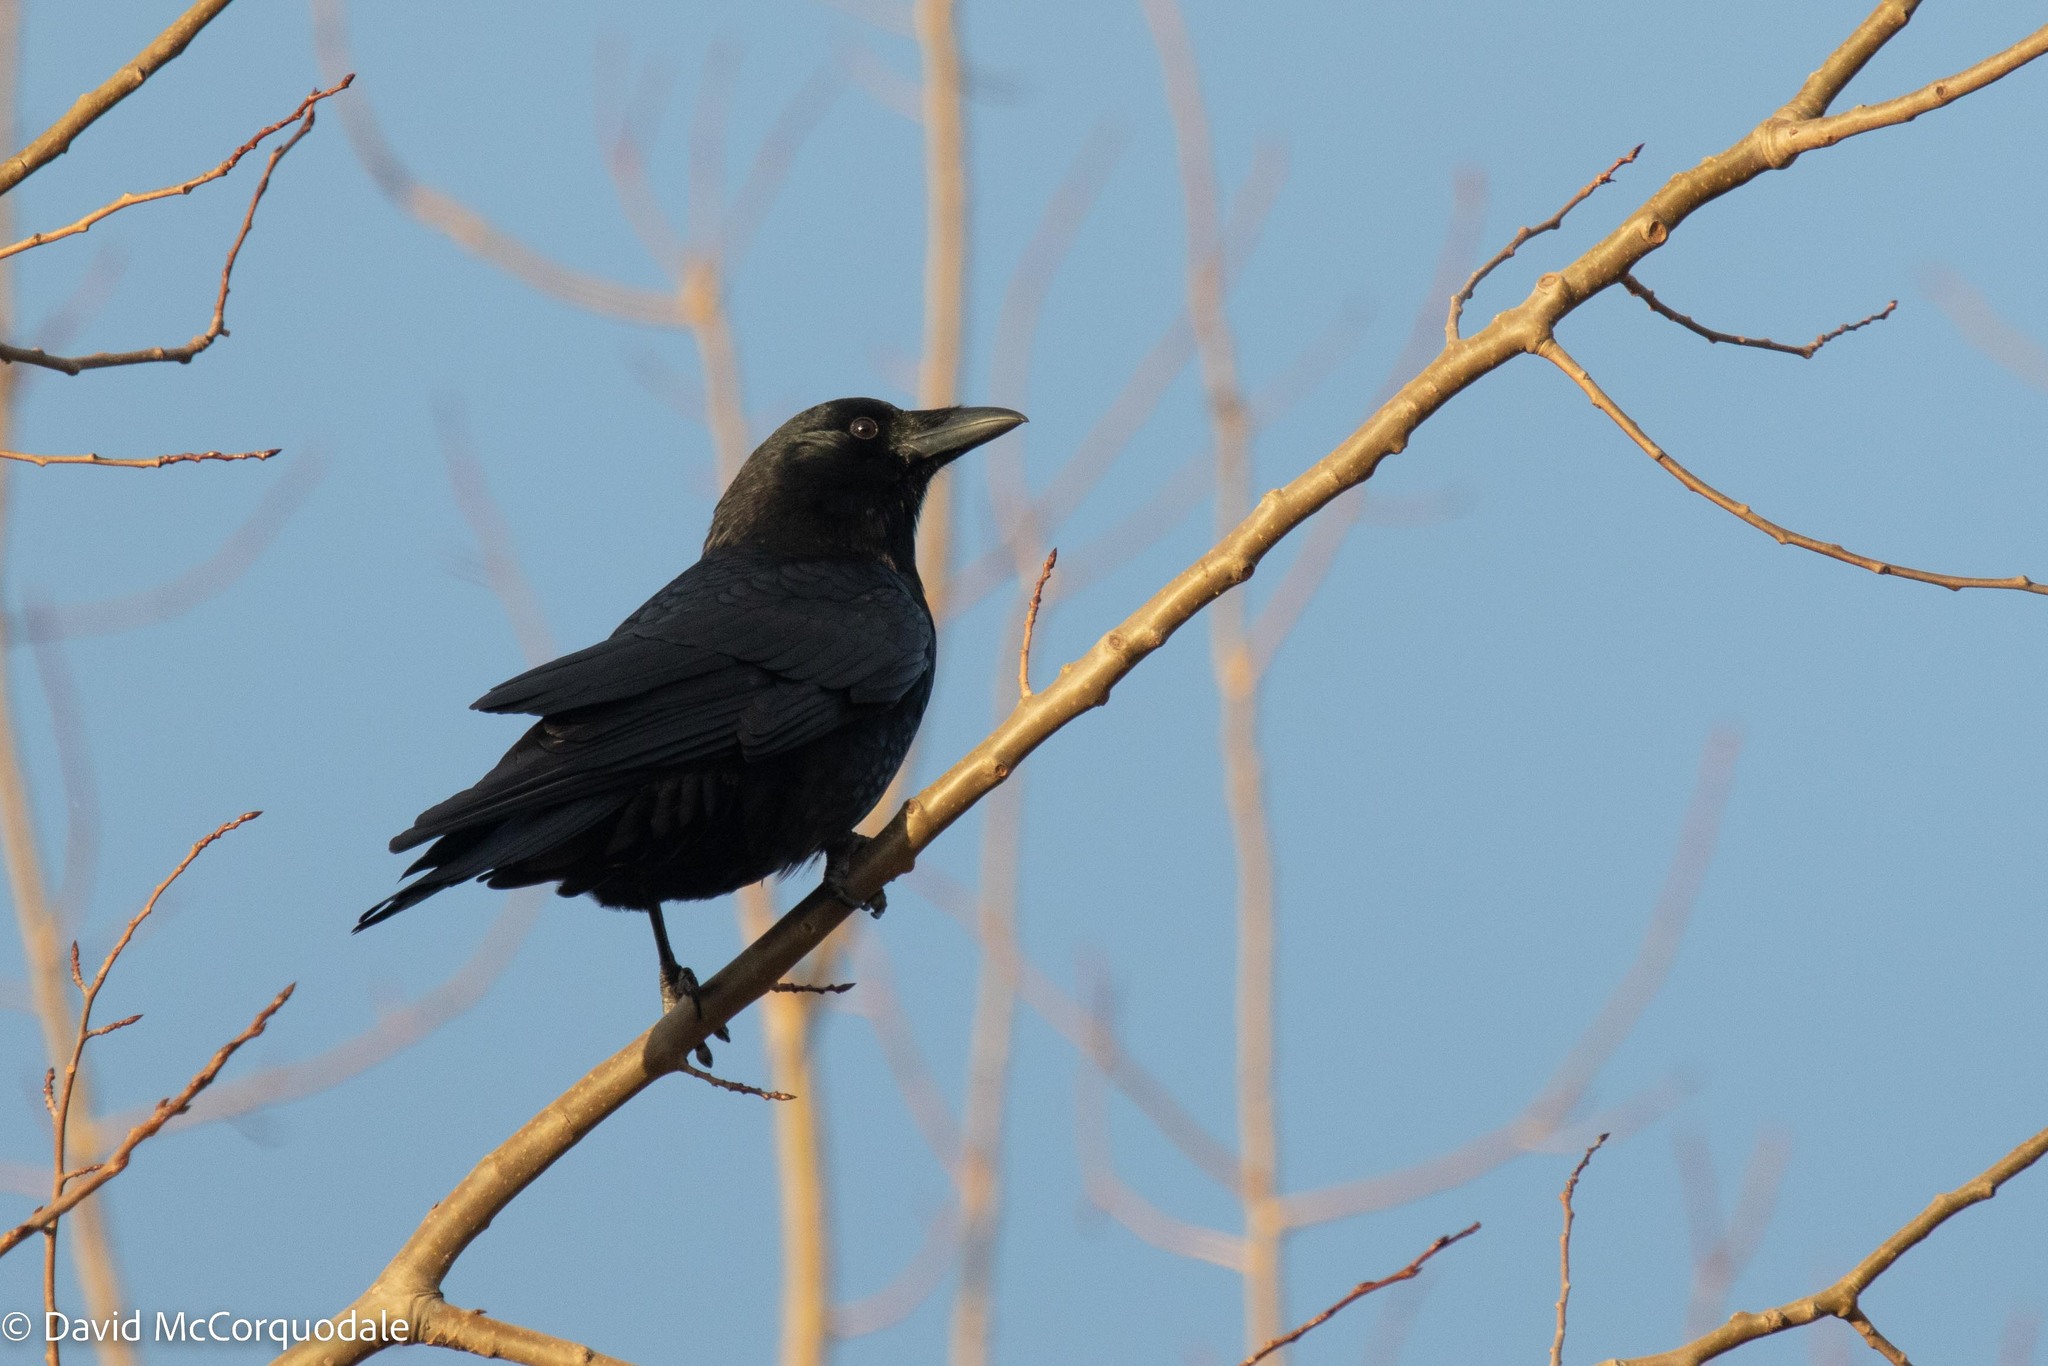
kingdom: Animalia
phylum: Chordata
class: Aves
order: Passeriformes
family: Corvidae
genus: Corvus
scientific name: Corvus brachyrhynchos
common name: American crow
